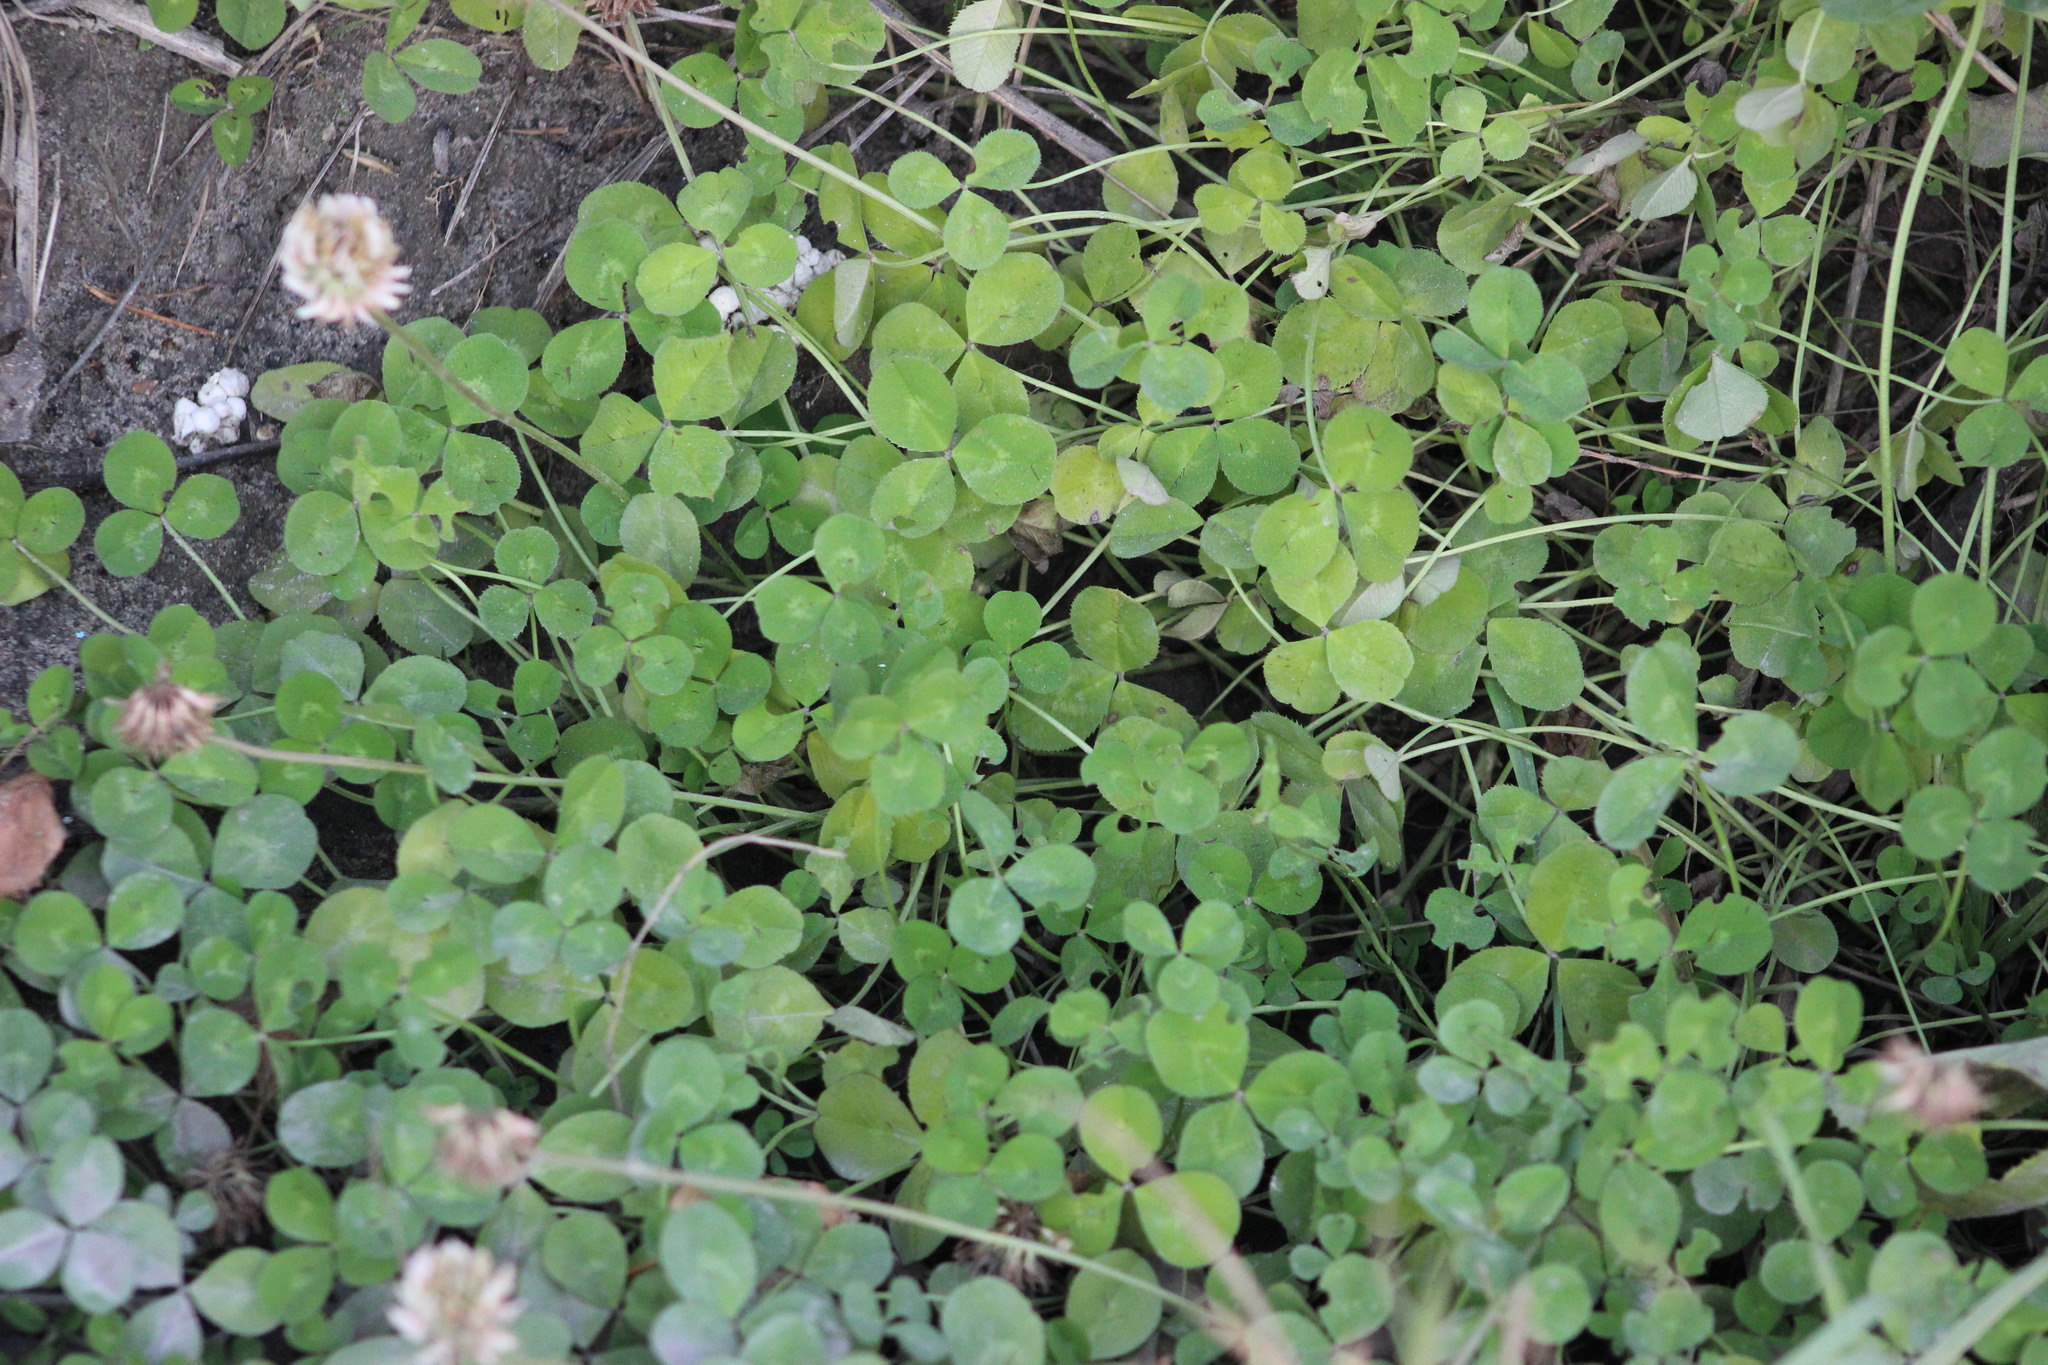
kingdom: Plantae
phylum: Tracheophyta
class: Magnoliopsida
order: Fabales
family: Fabaceae
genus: Trifolium
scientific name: Trifolium repens
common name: White clover
